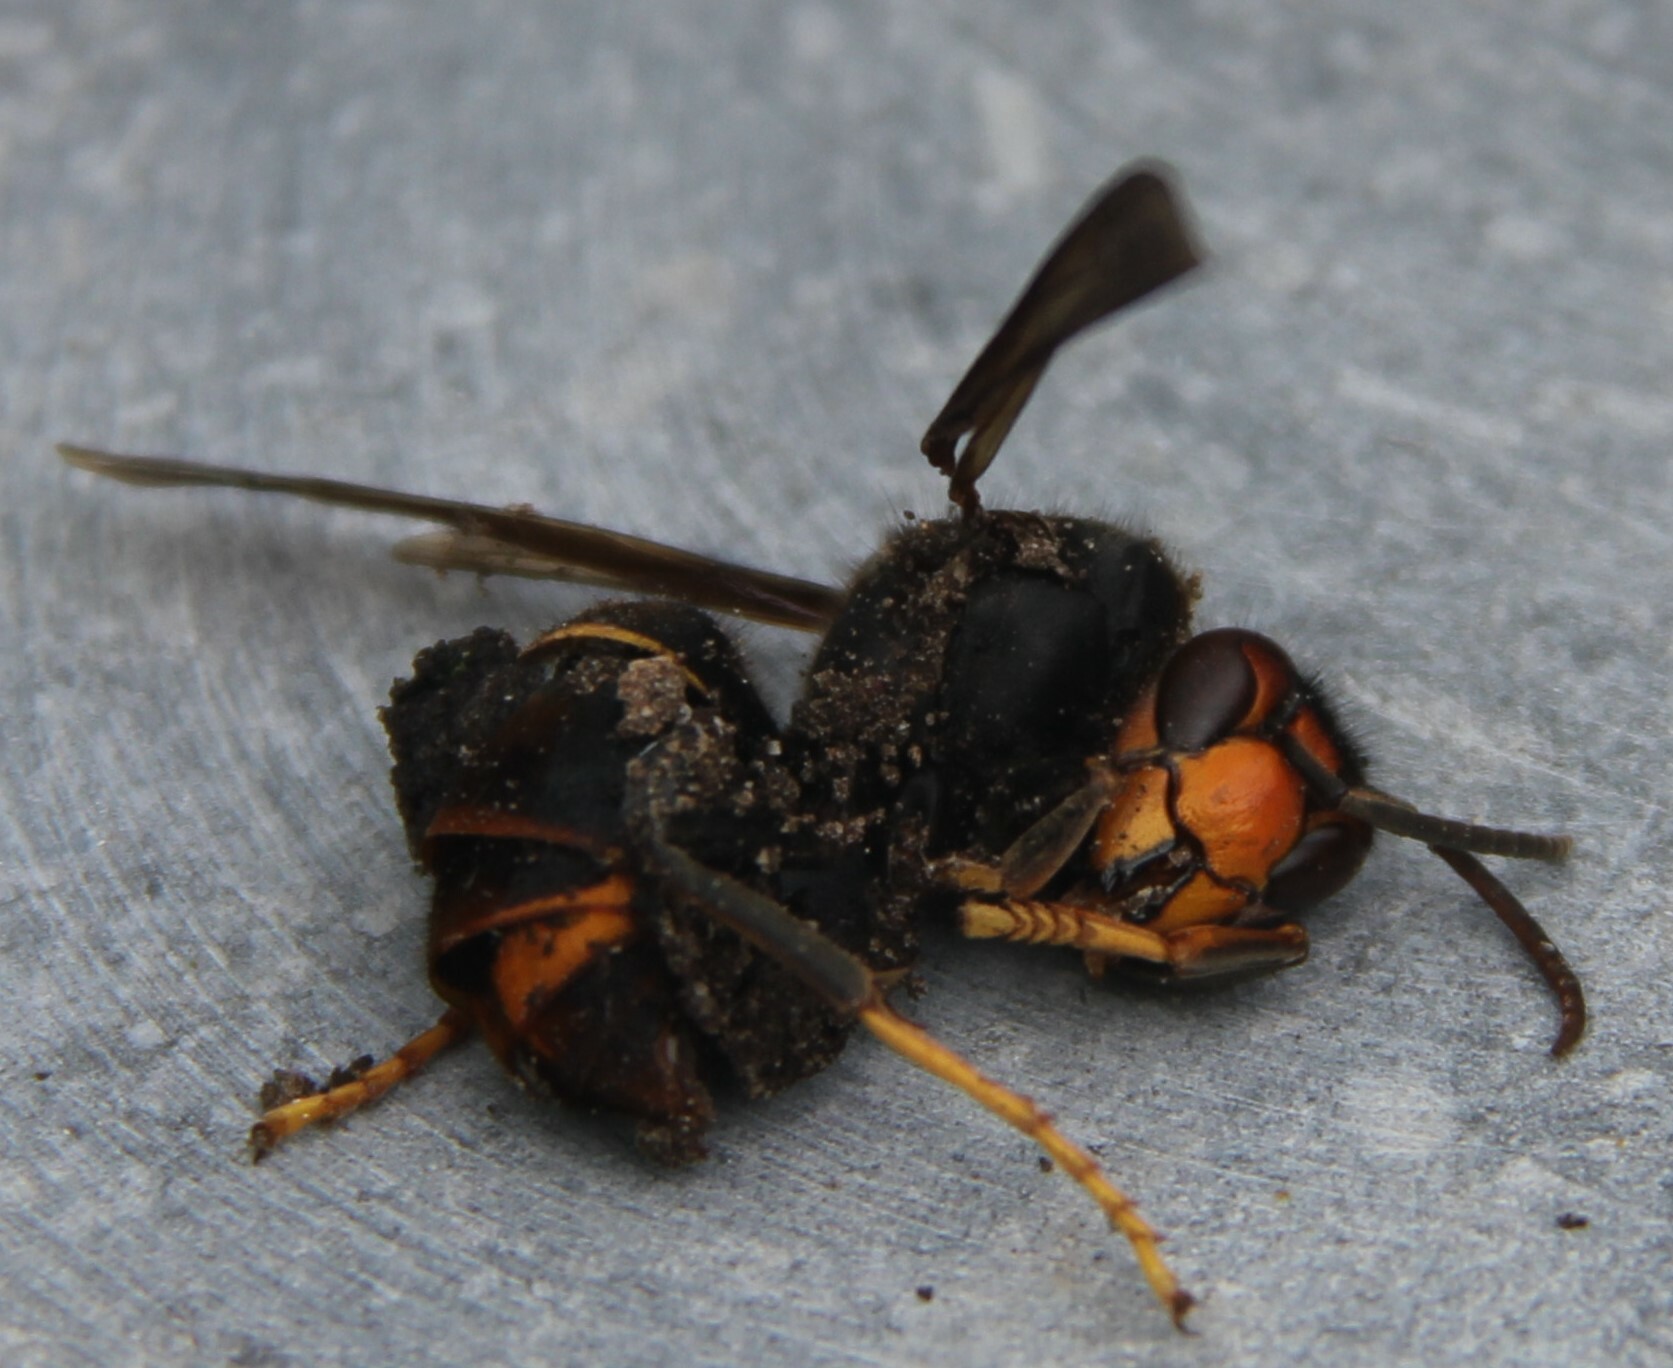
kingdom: Animalia
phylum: Arthropoda
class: Insecta
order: Hymenoptera
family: Vespidae
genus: Vespa
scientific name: Vespa velutina
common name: Asian hornet
